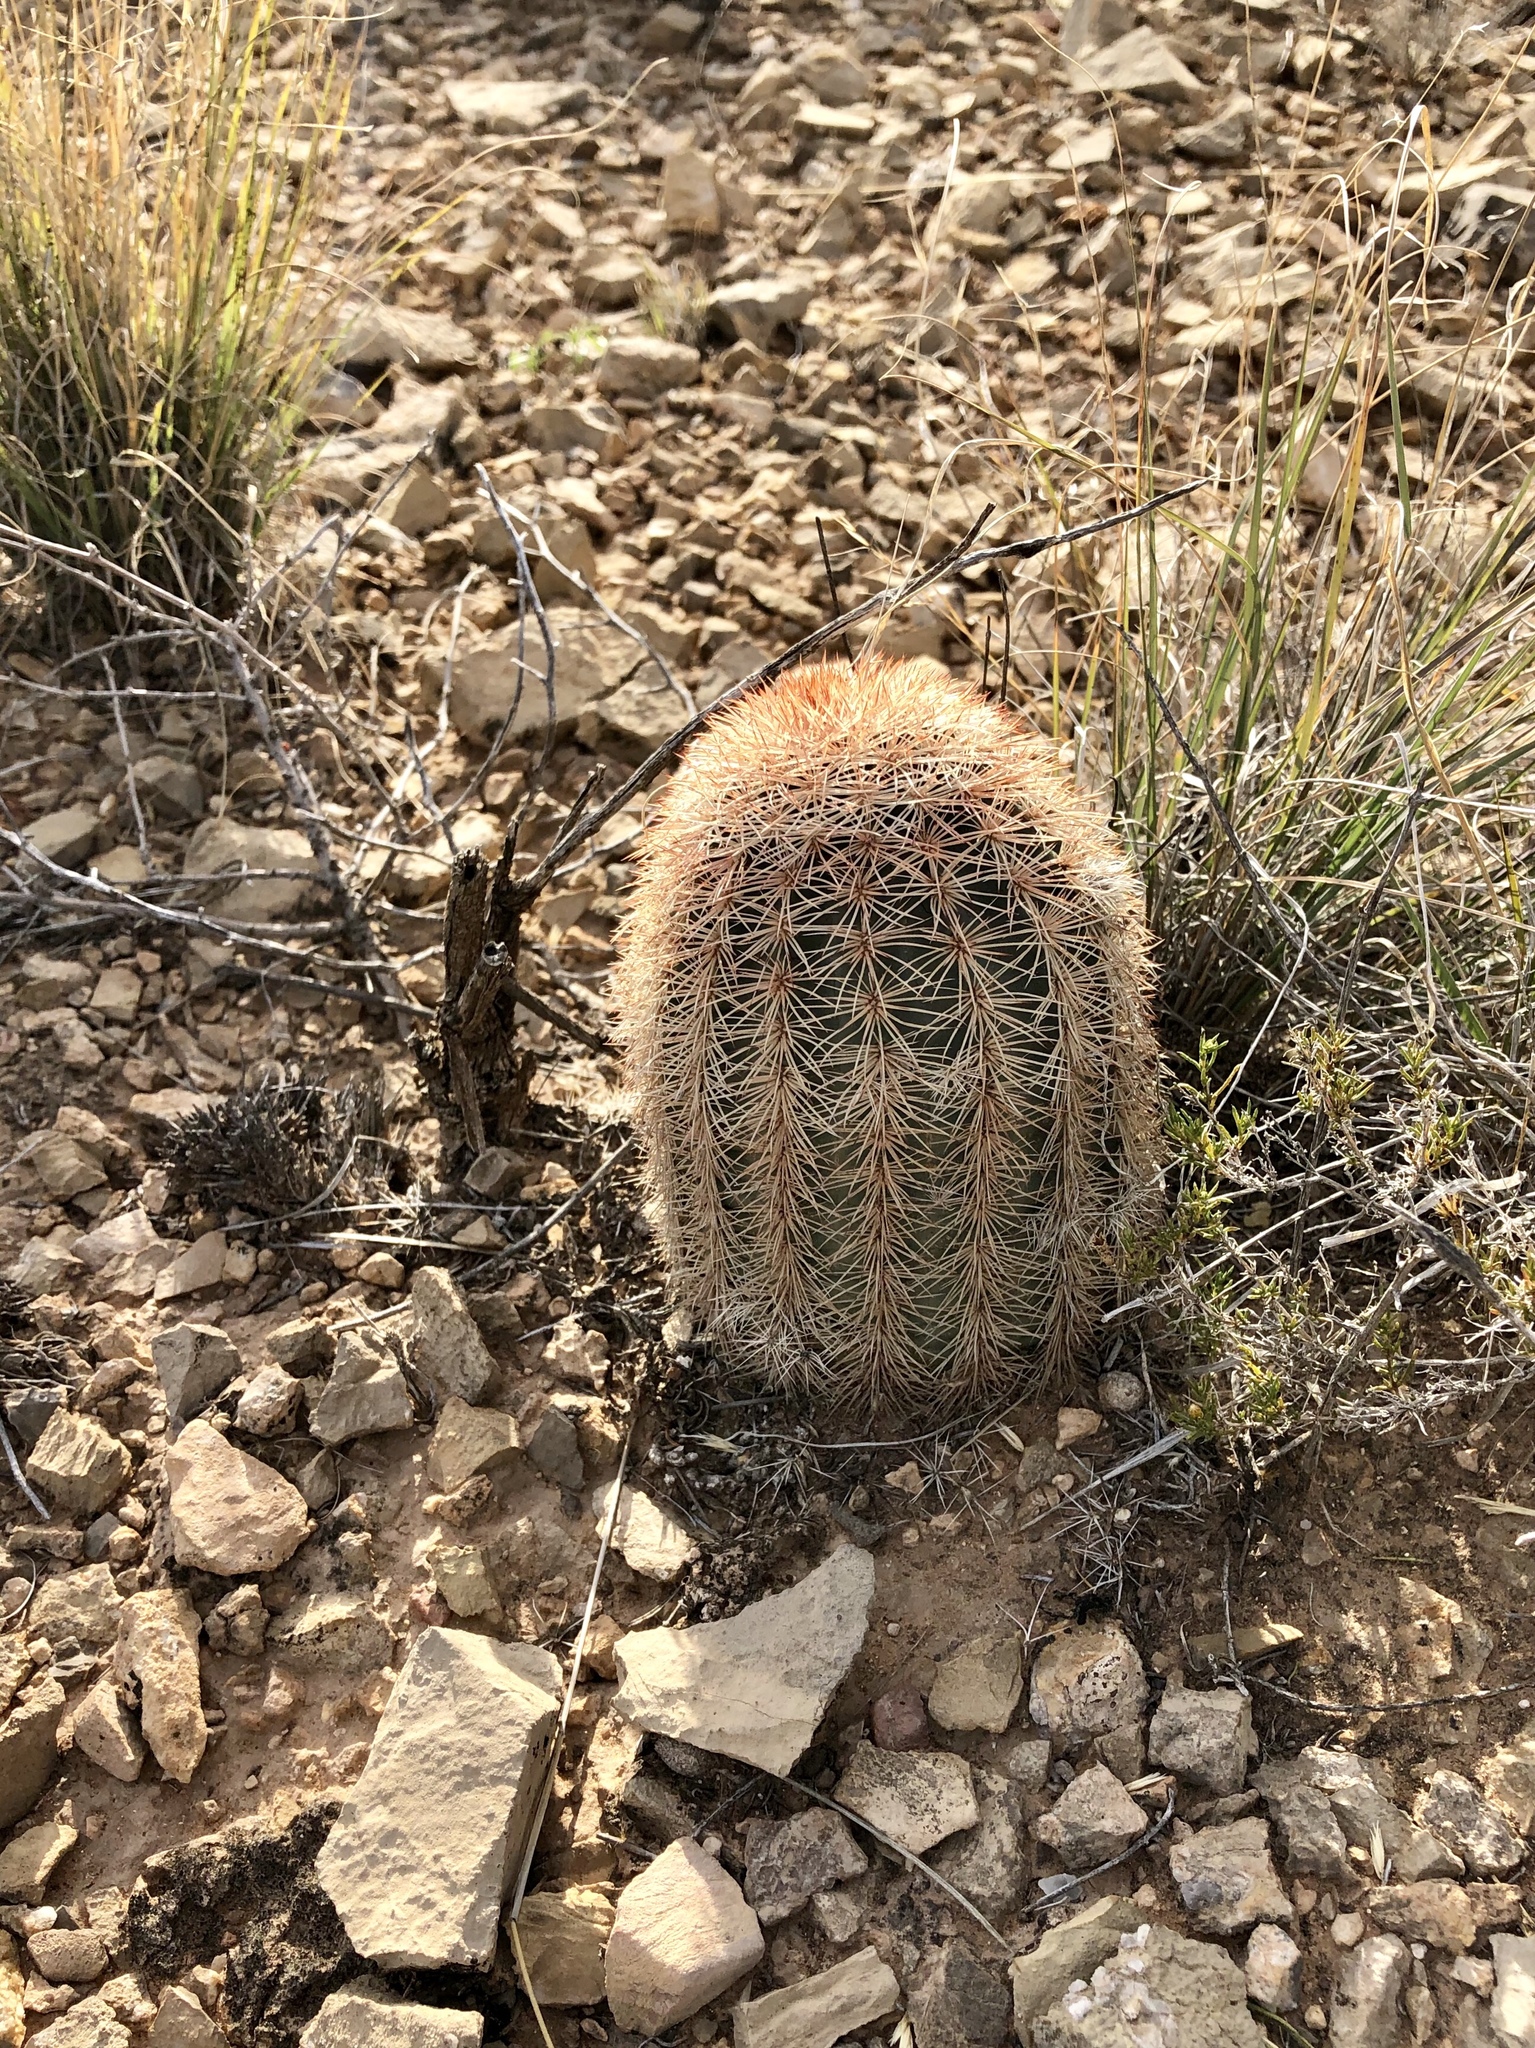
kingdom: Plantae
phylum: Tracheophyta
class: Magnoliopsida
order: Caryophyllales
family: Cactaceae
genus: Echinocereus
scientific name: Echinocereus dasyacanthus
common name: Spiny hedgehog cactus
